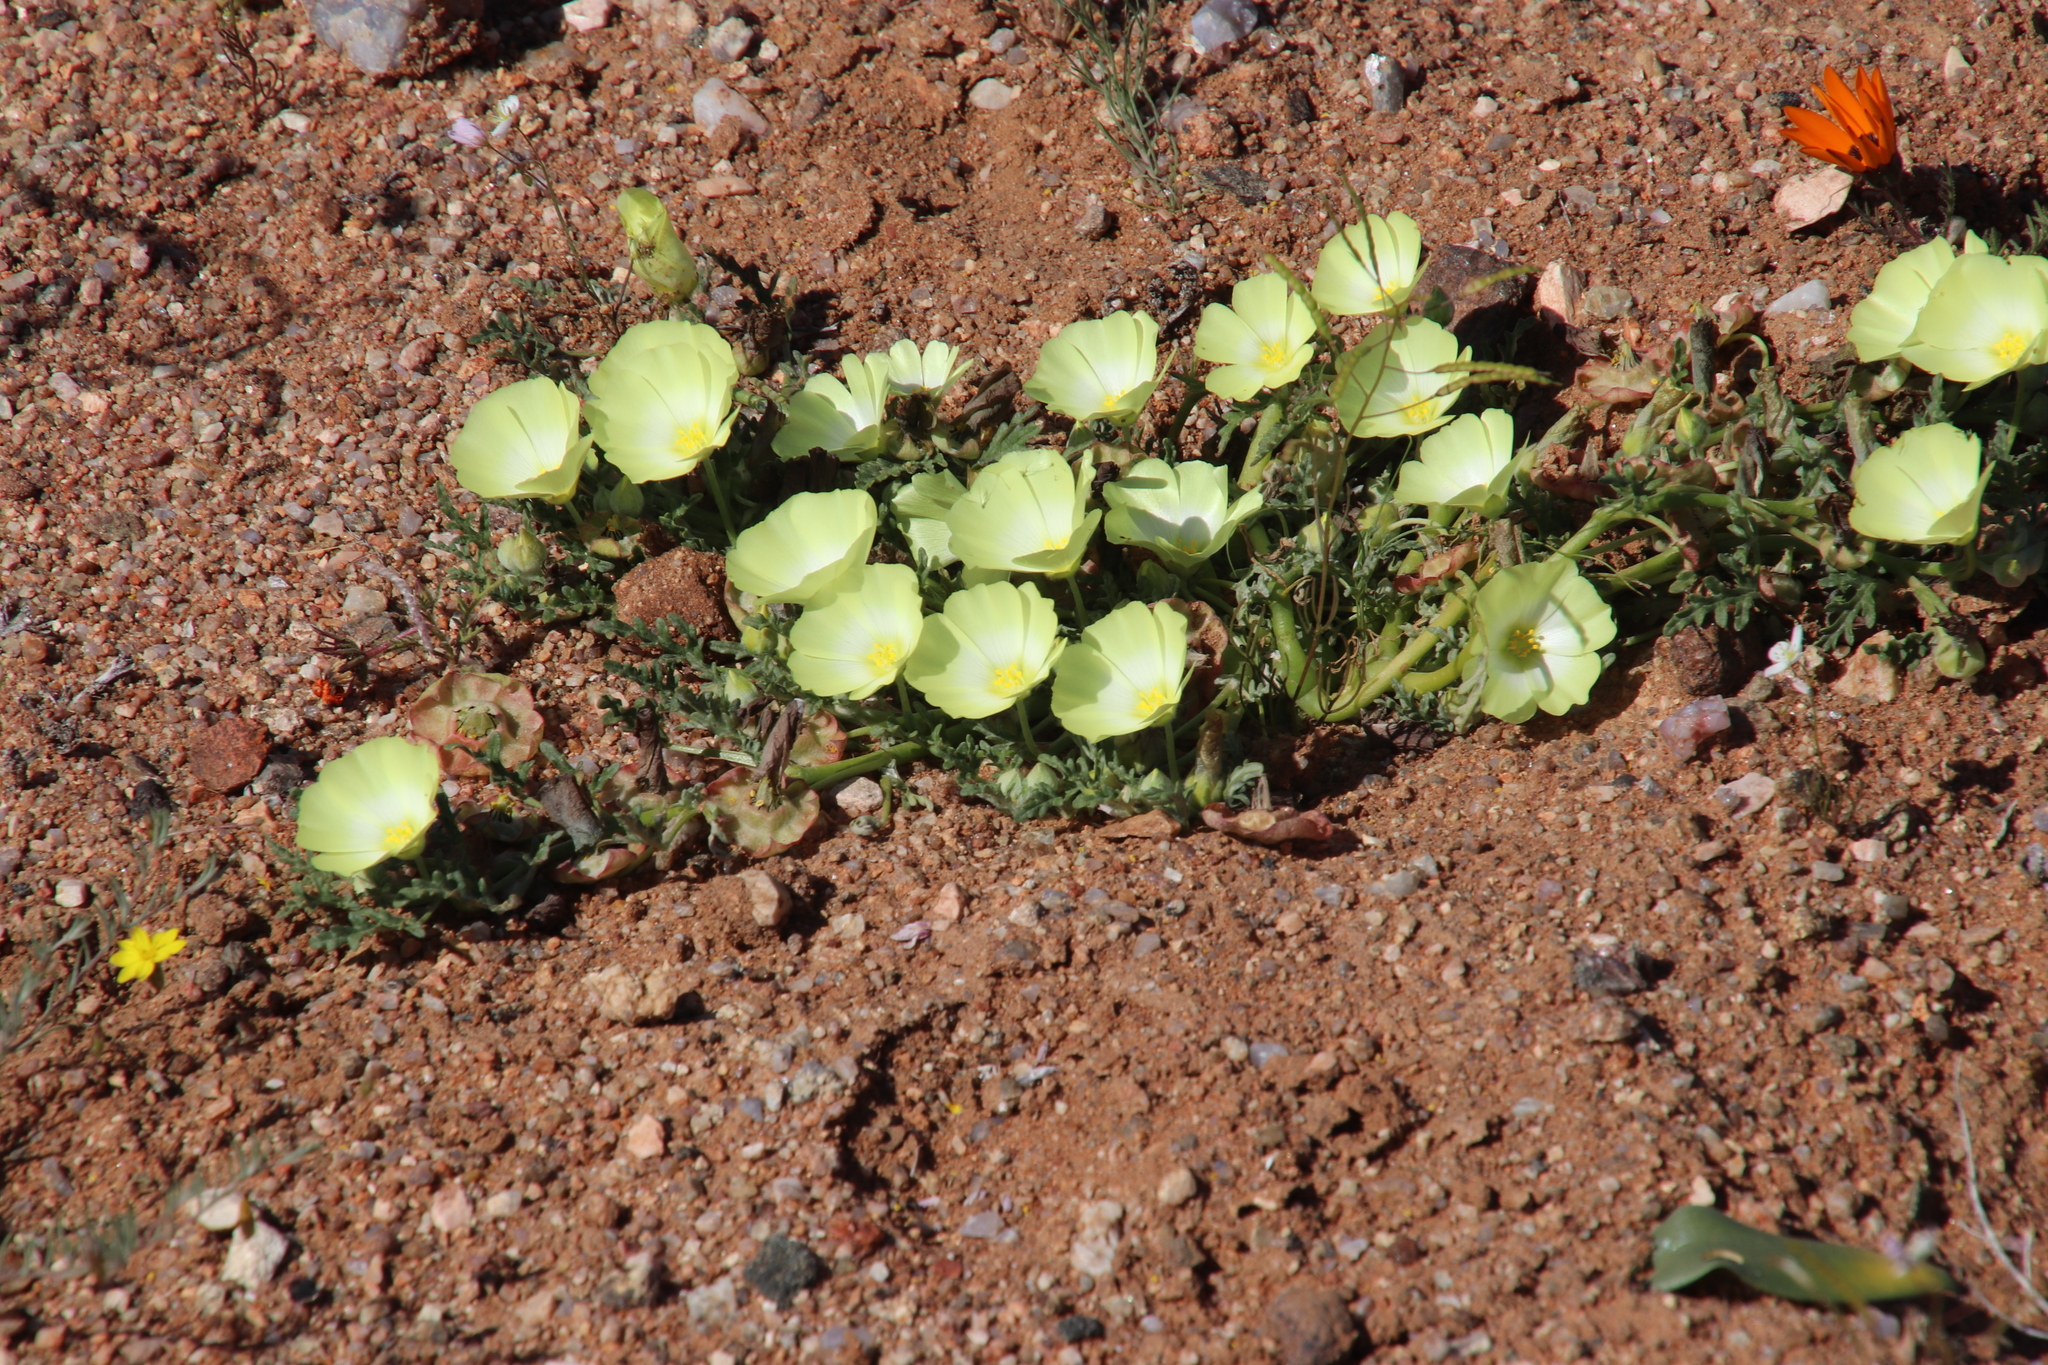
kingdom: Plantae
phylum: Tracheophyta
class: Magnoliopsida
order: Malvales
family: Neuradaceae
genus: Grielum
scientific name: Grielum humifusum
